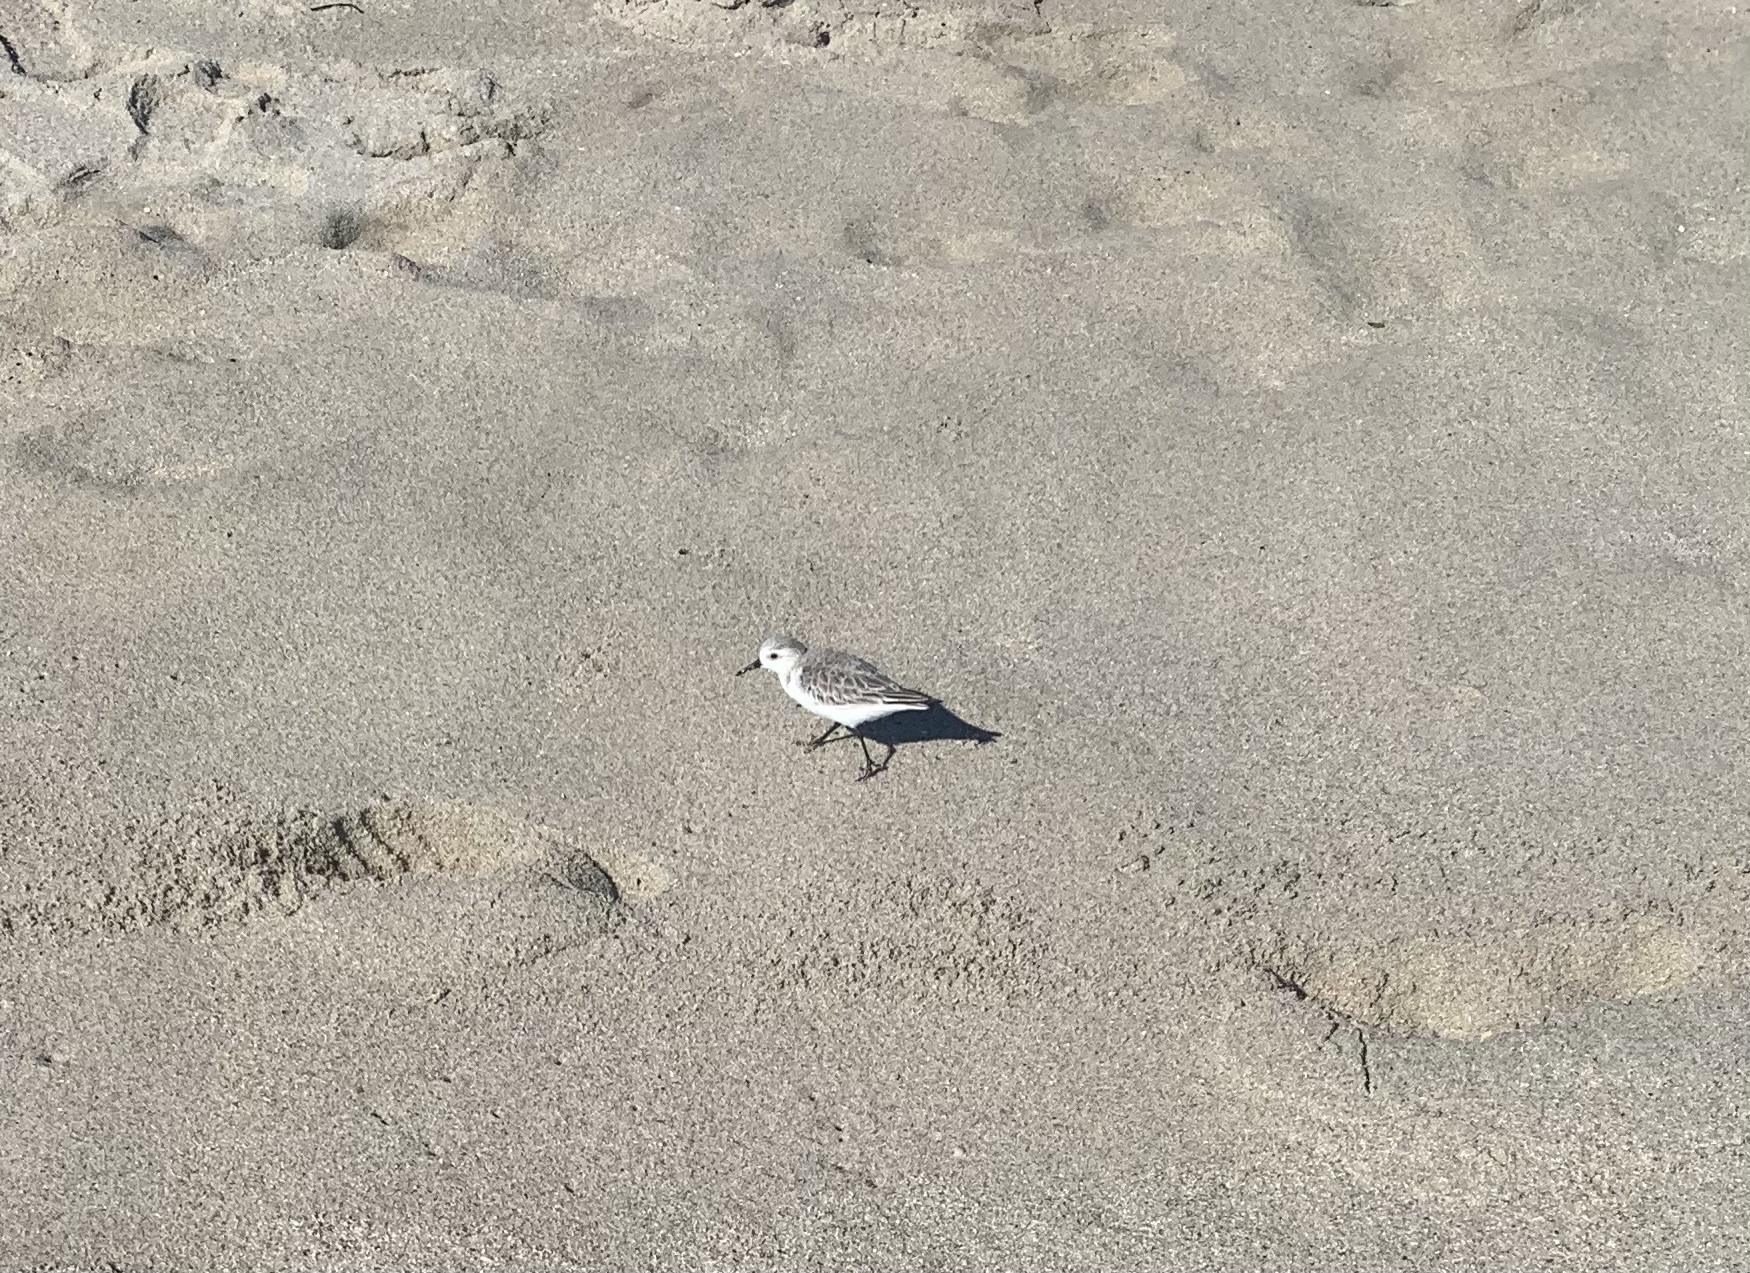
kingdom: Animalia
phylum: Chordata
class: Aves
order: Charadriiformes
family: Scolopacidae
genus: Calidris
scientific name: Calidris alba
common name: Sanderling
